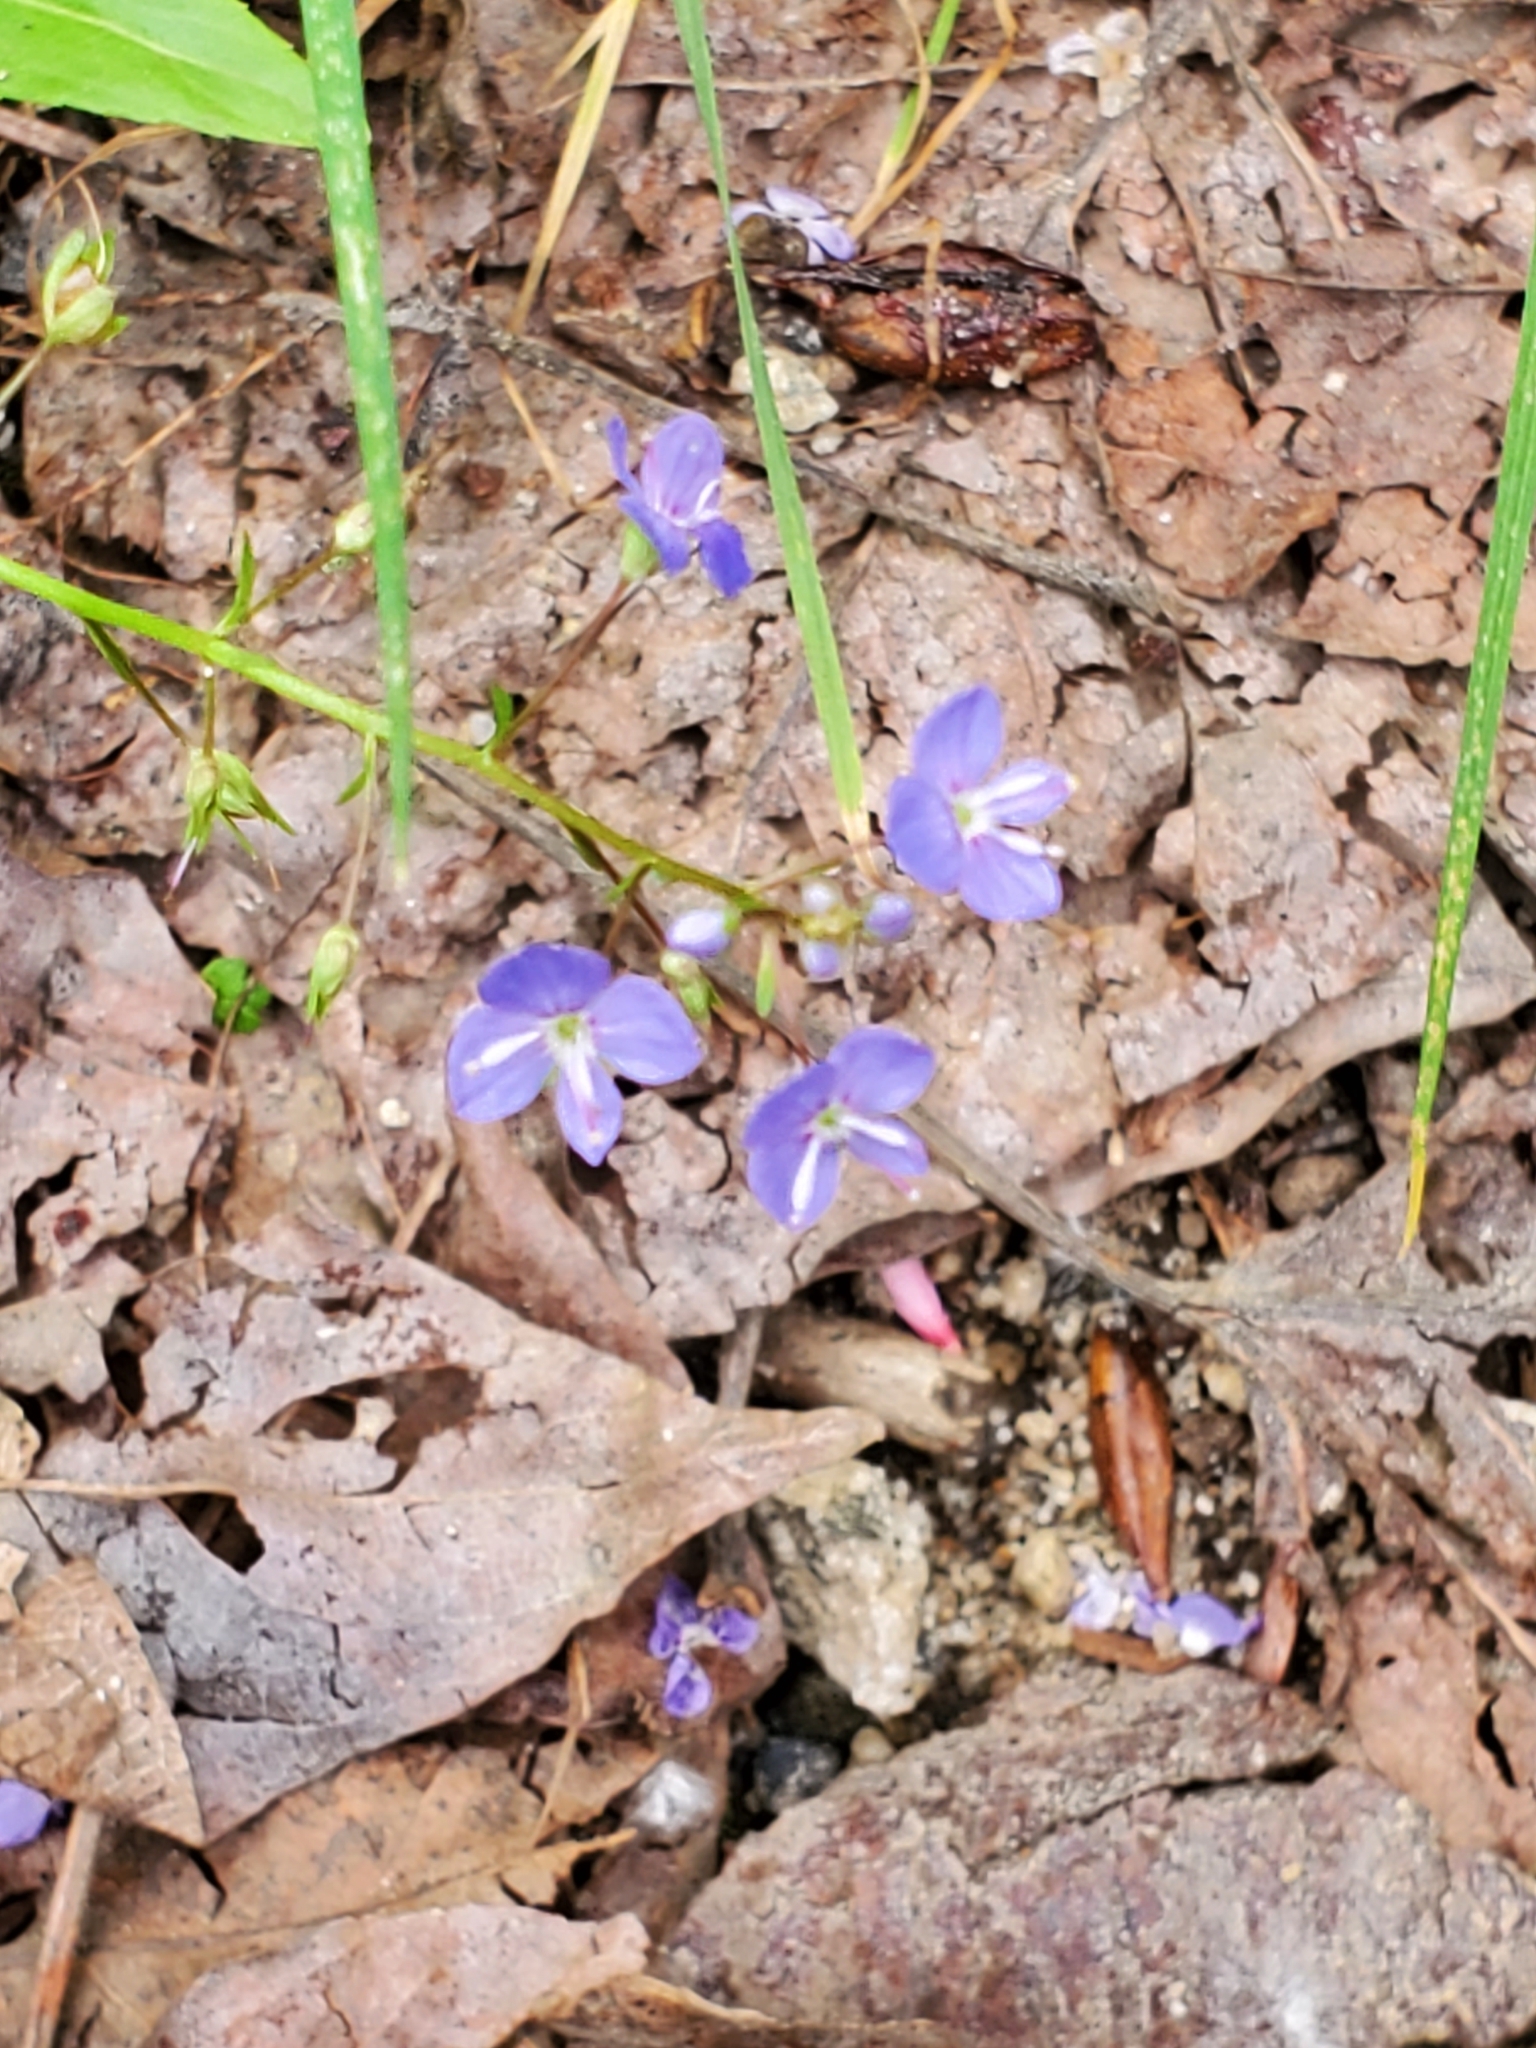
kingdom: Plantae
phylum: Tracheophyta
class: Magnoliopsida
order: Lamiales
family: Plantaginaceae
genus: Veronica
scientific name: Veronica americana
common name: American brooklime
